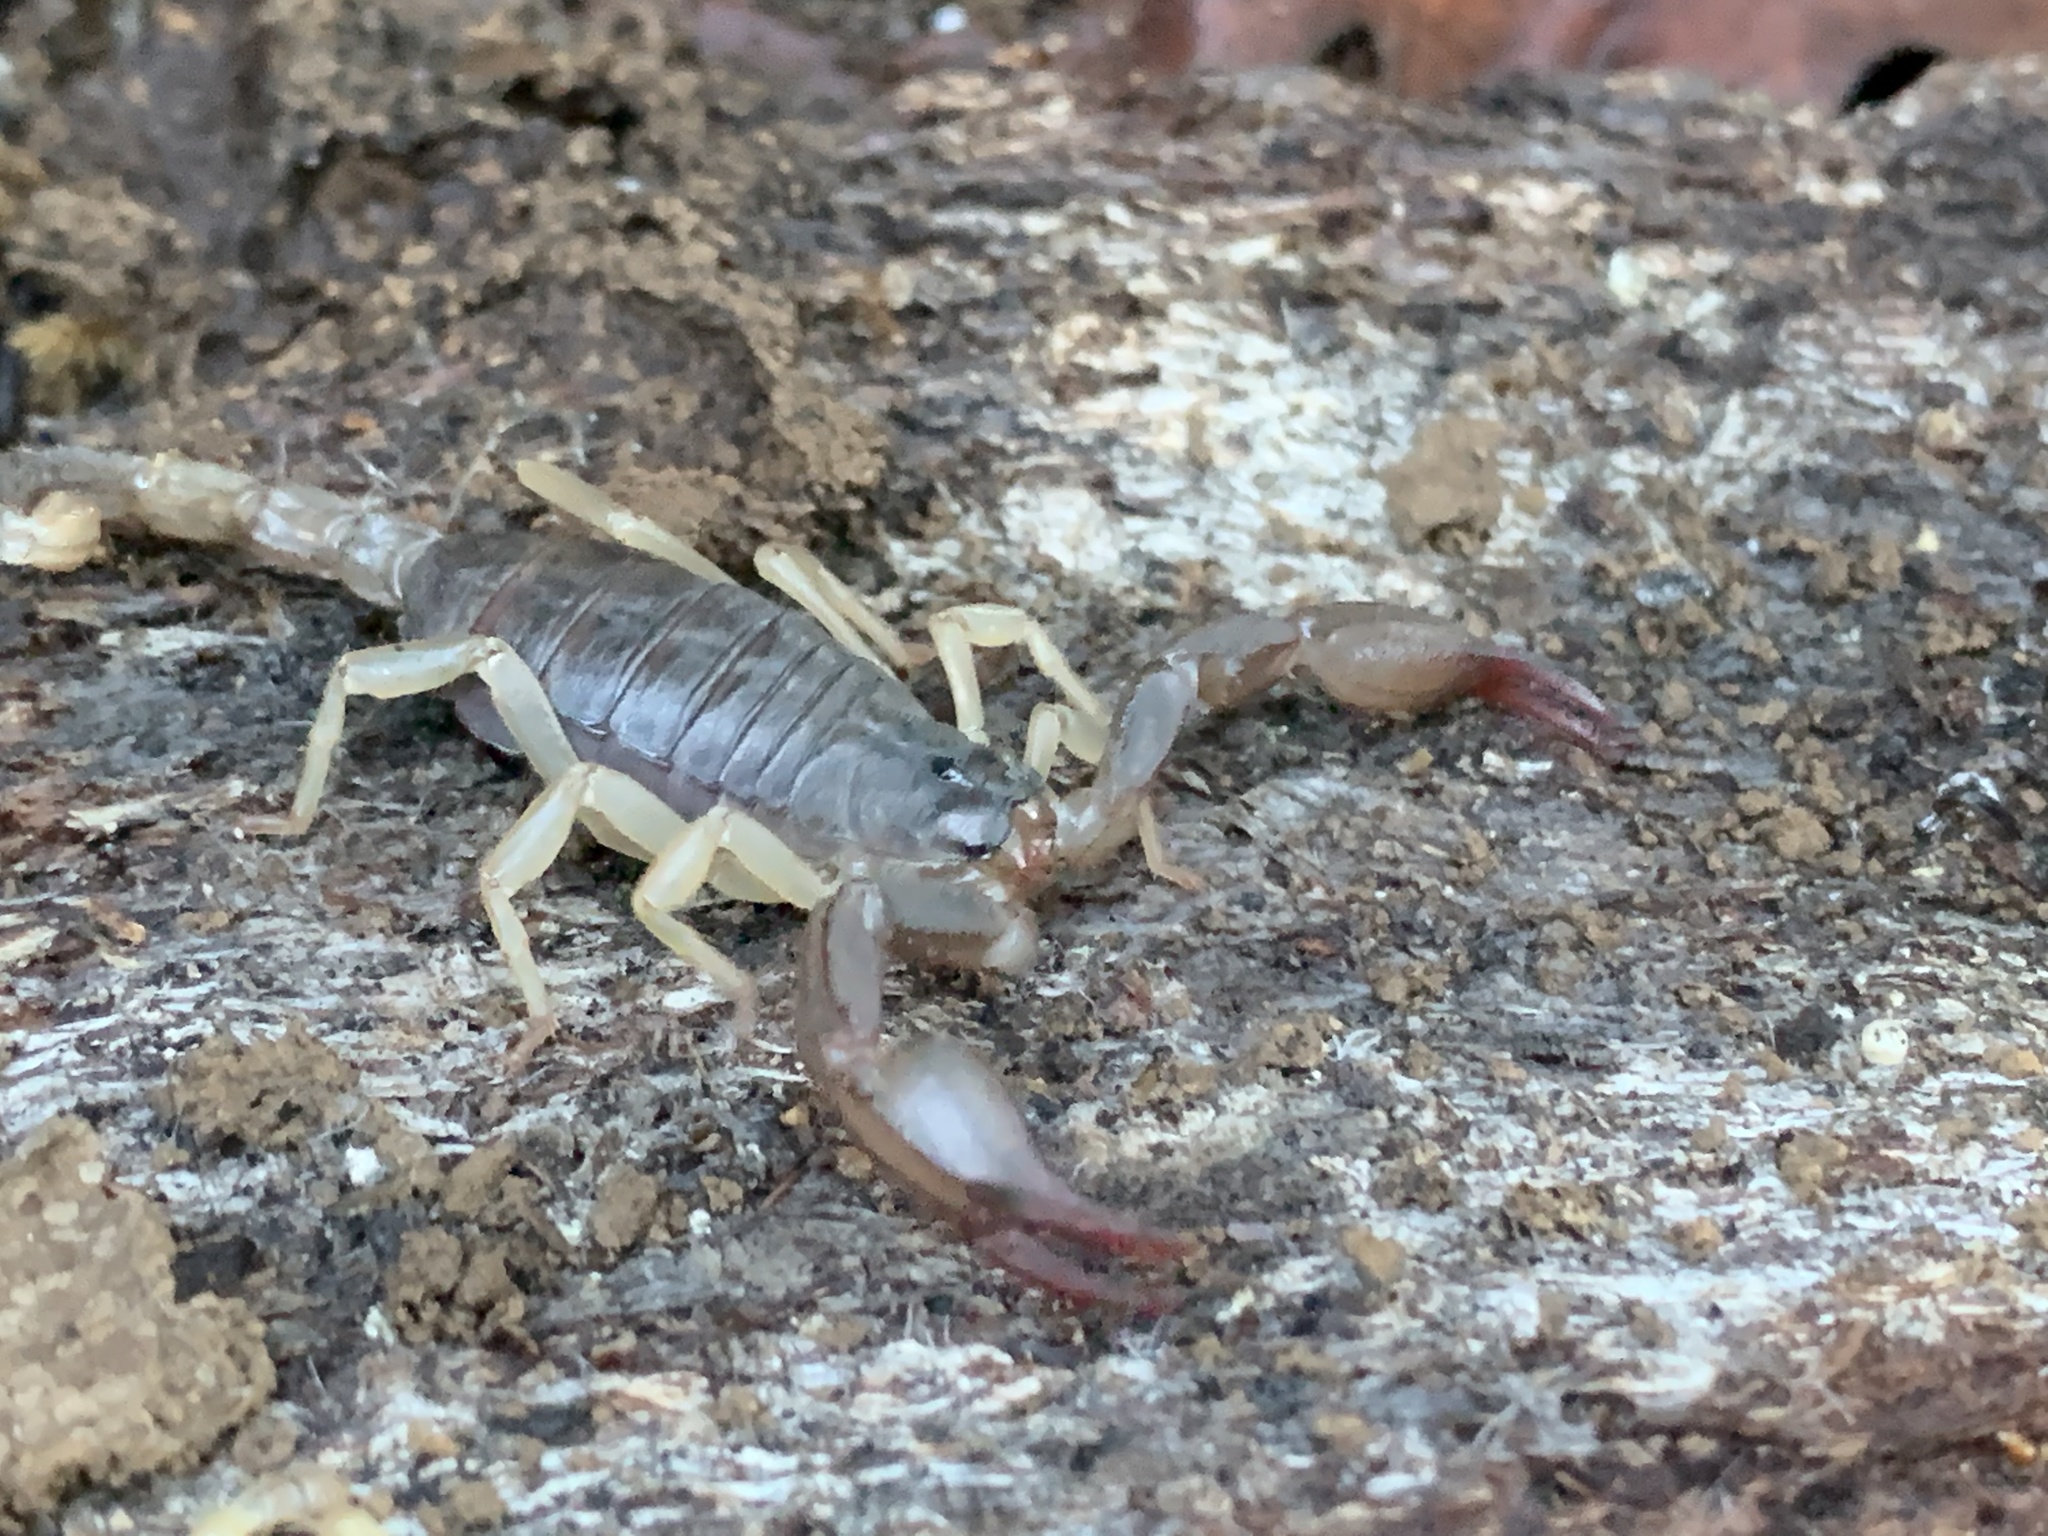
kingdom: Animalia
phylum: Arthropoda
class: Arachnida
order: Scorpiones
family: Chactidae
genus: Uroctonus
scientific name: Uroctonus mordax
